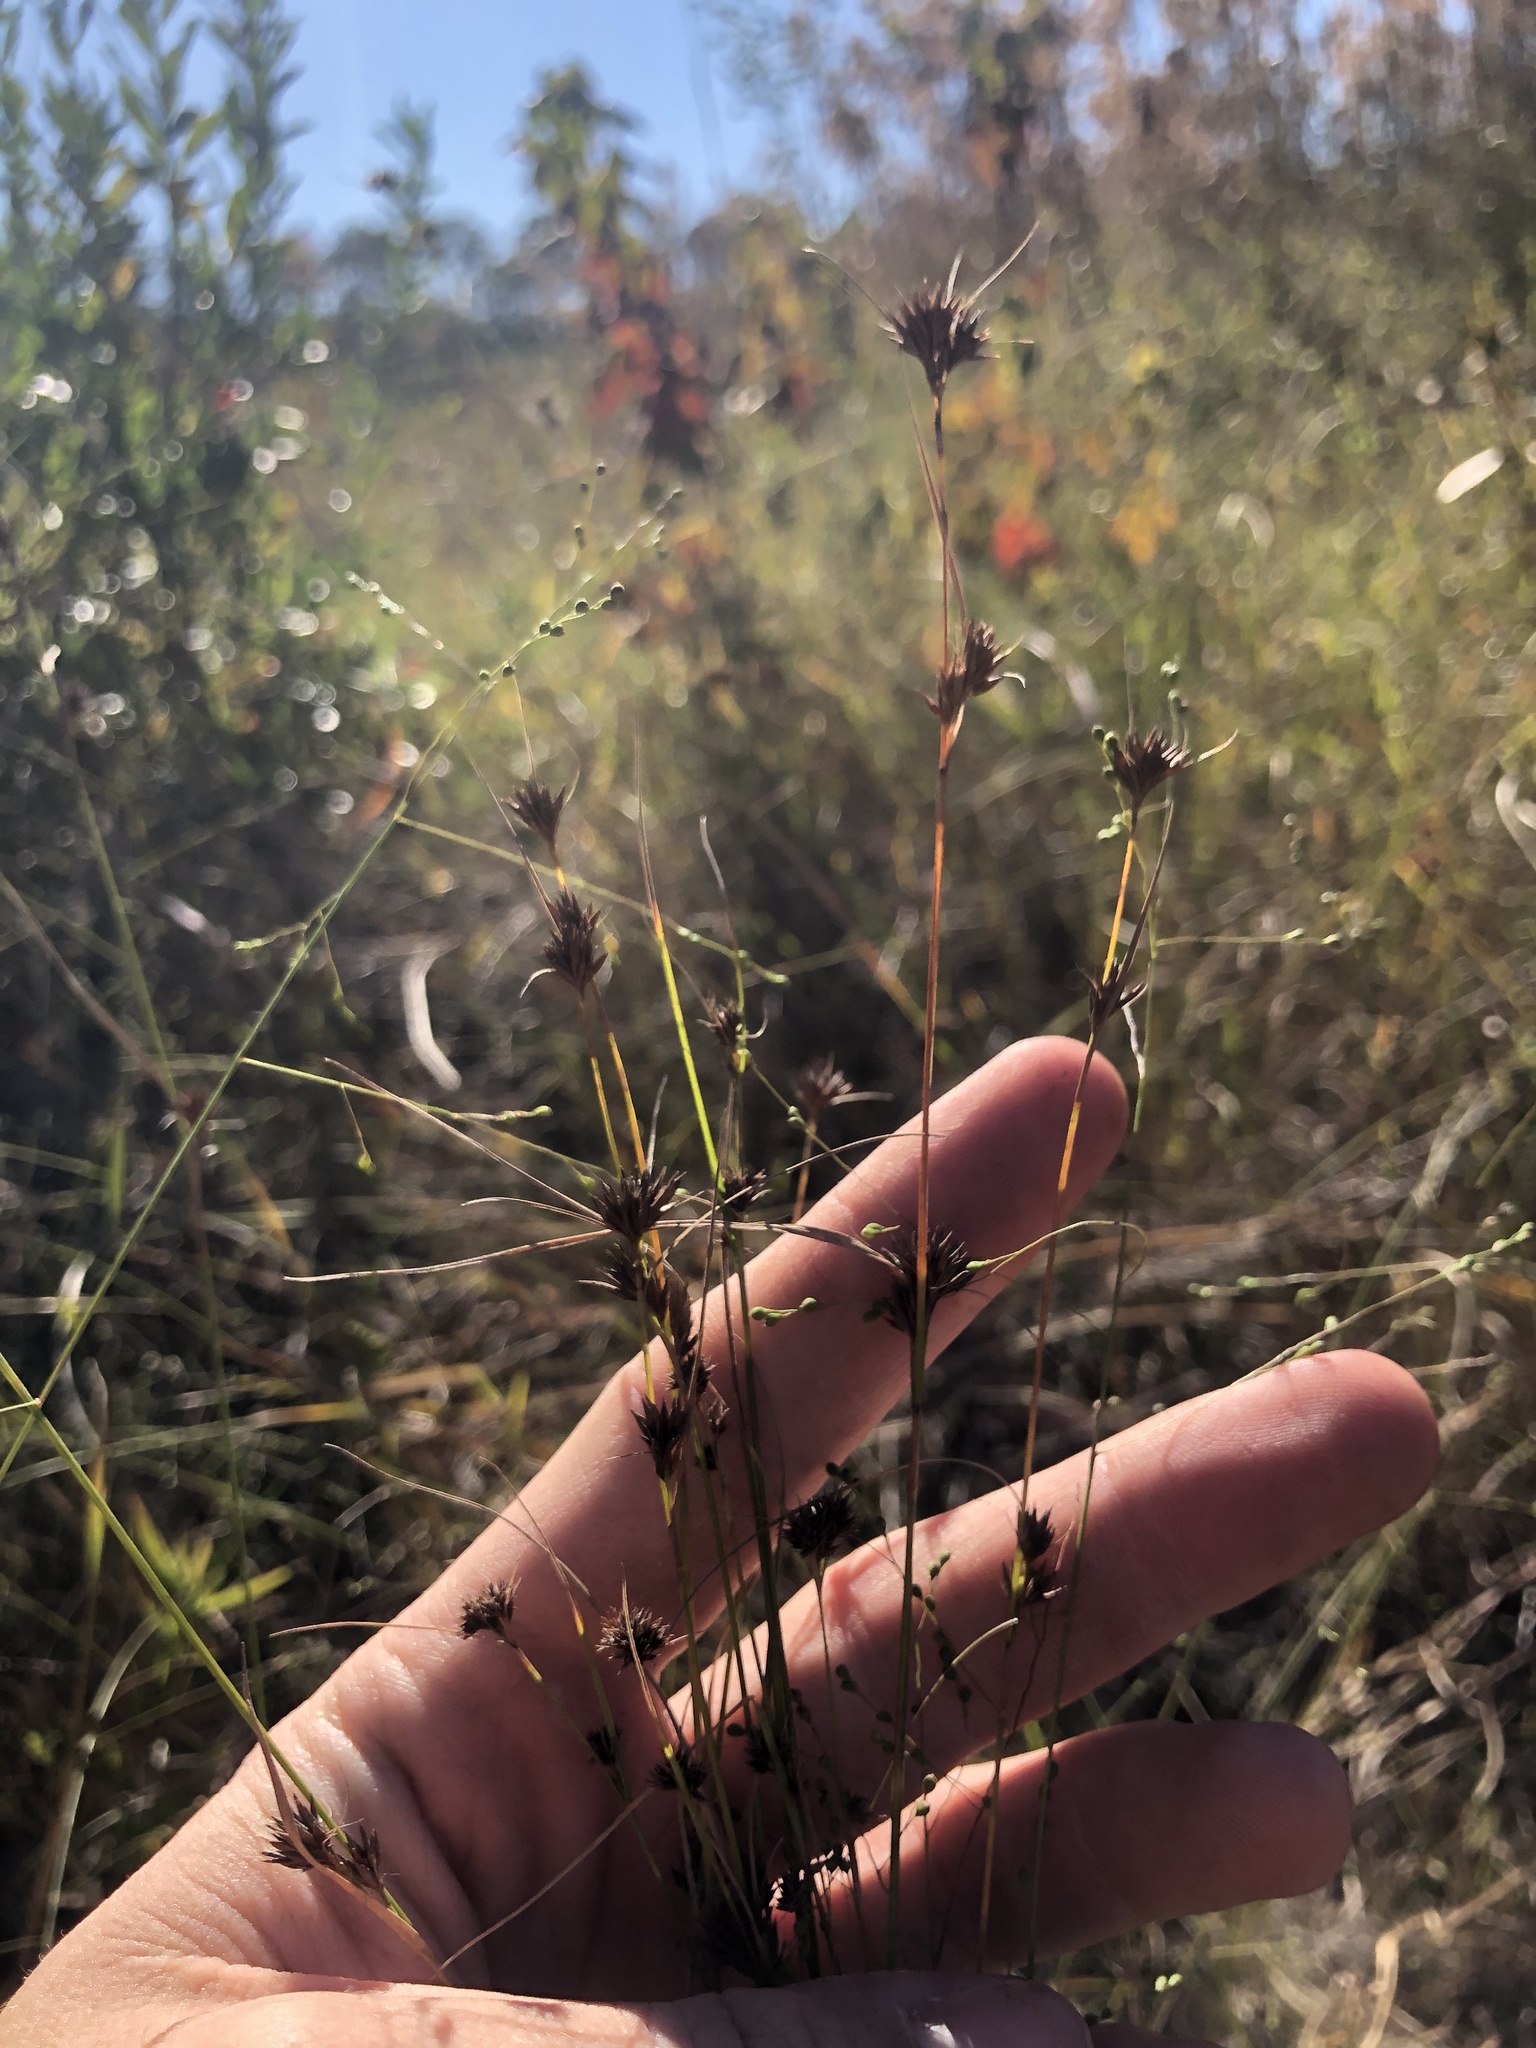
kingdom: Plantae
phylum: Tracheophyta
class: Liliopsida
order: Poales
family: Cyperaceae
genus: Rhynchospora
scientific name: Rhynchospora leptocarpa
